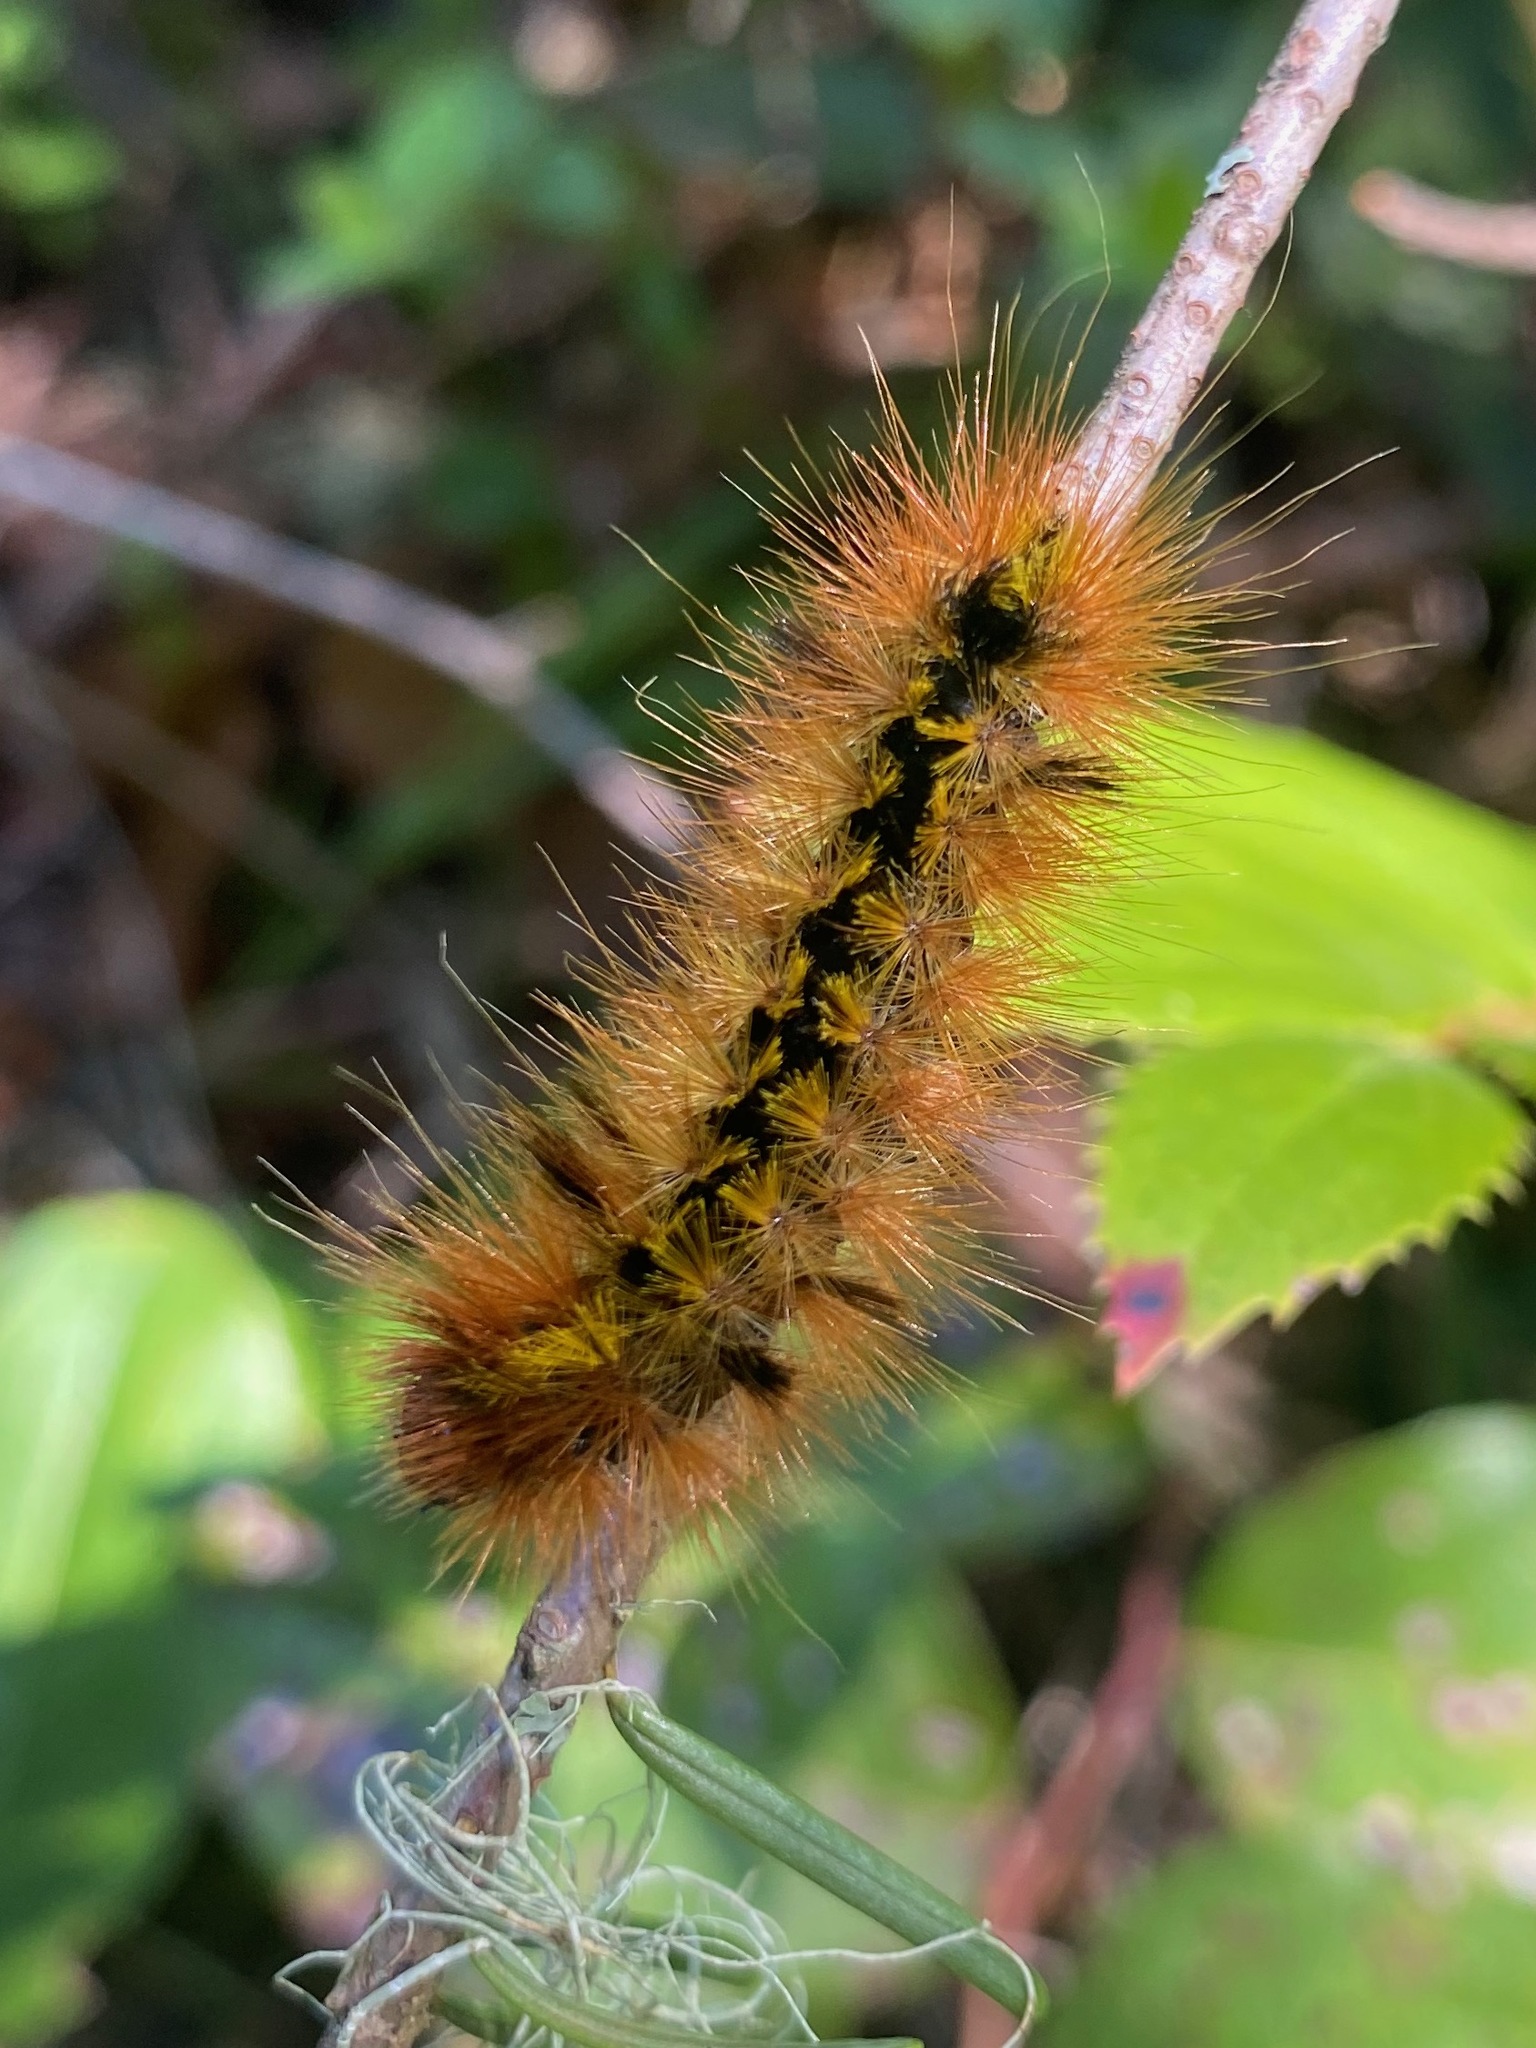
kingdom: Animalia
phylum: Arthropoda
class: Insecta
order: Lepidoptera
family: Erebidae
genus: Lophocampa
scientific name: Lophocampa argentata
